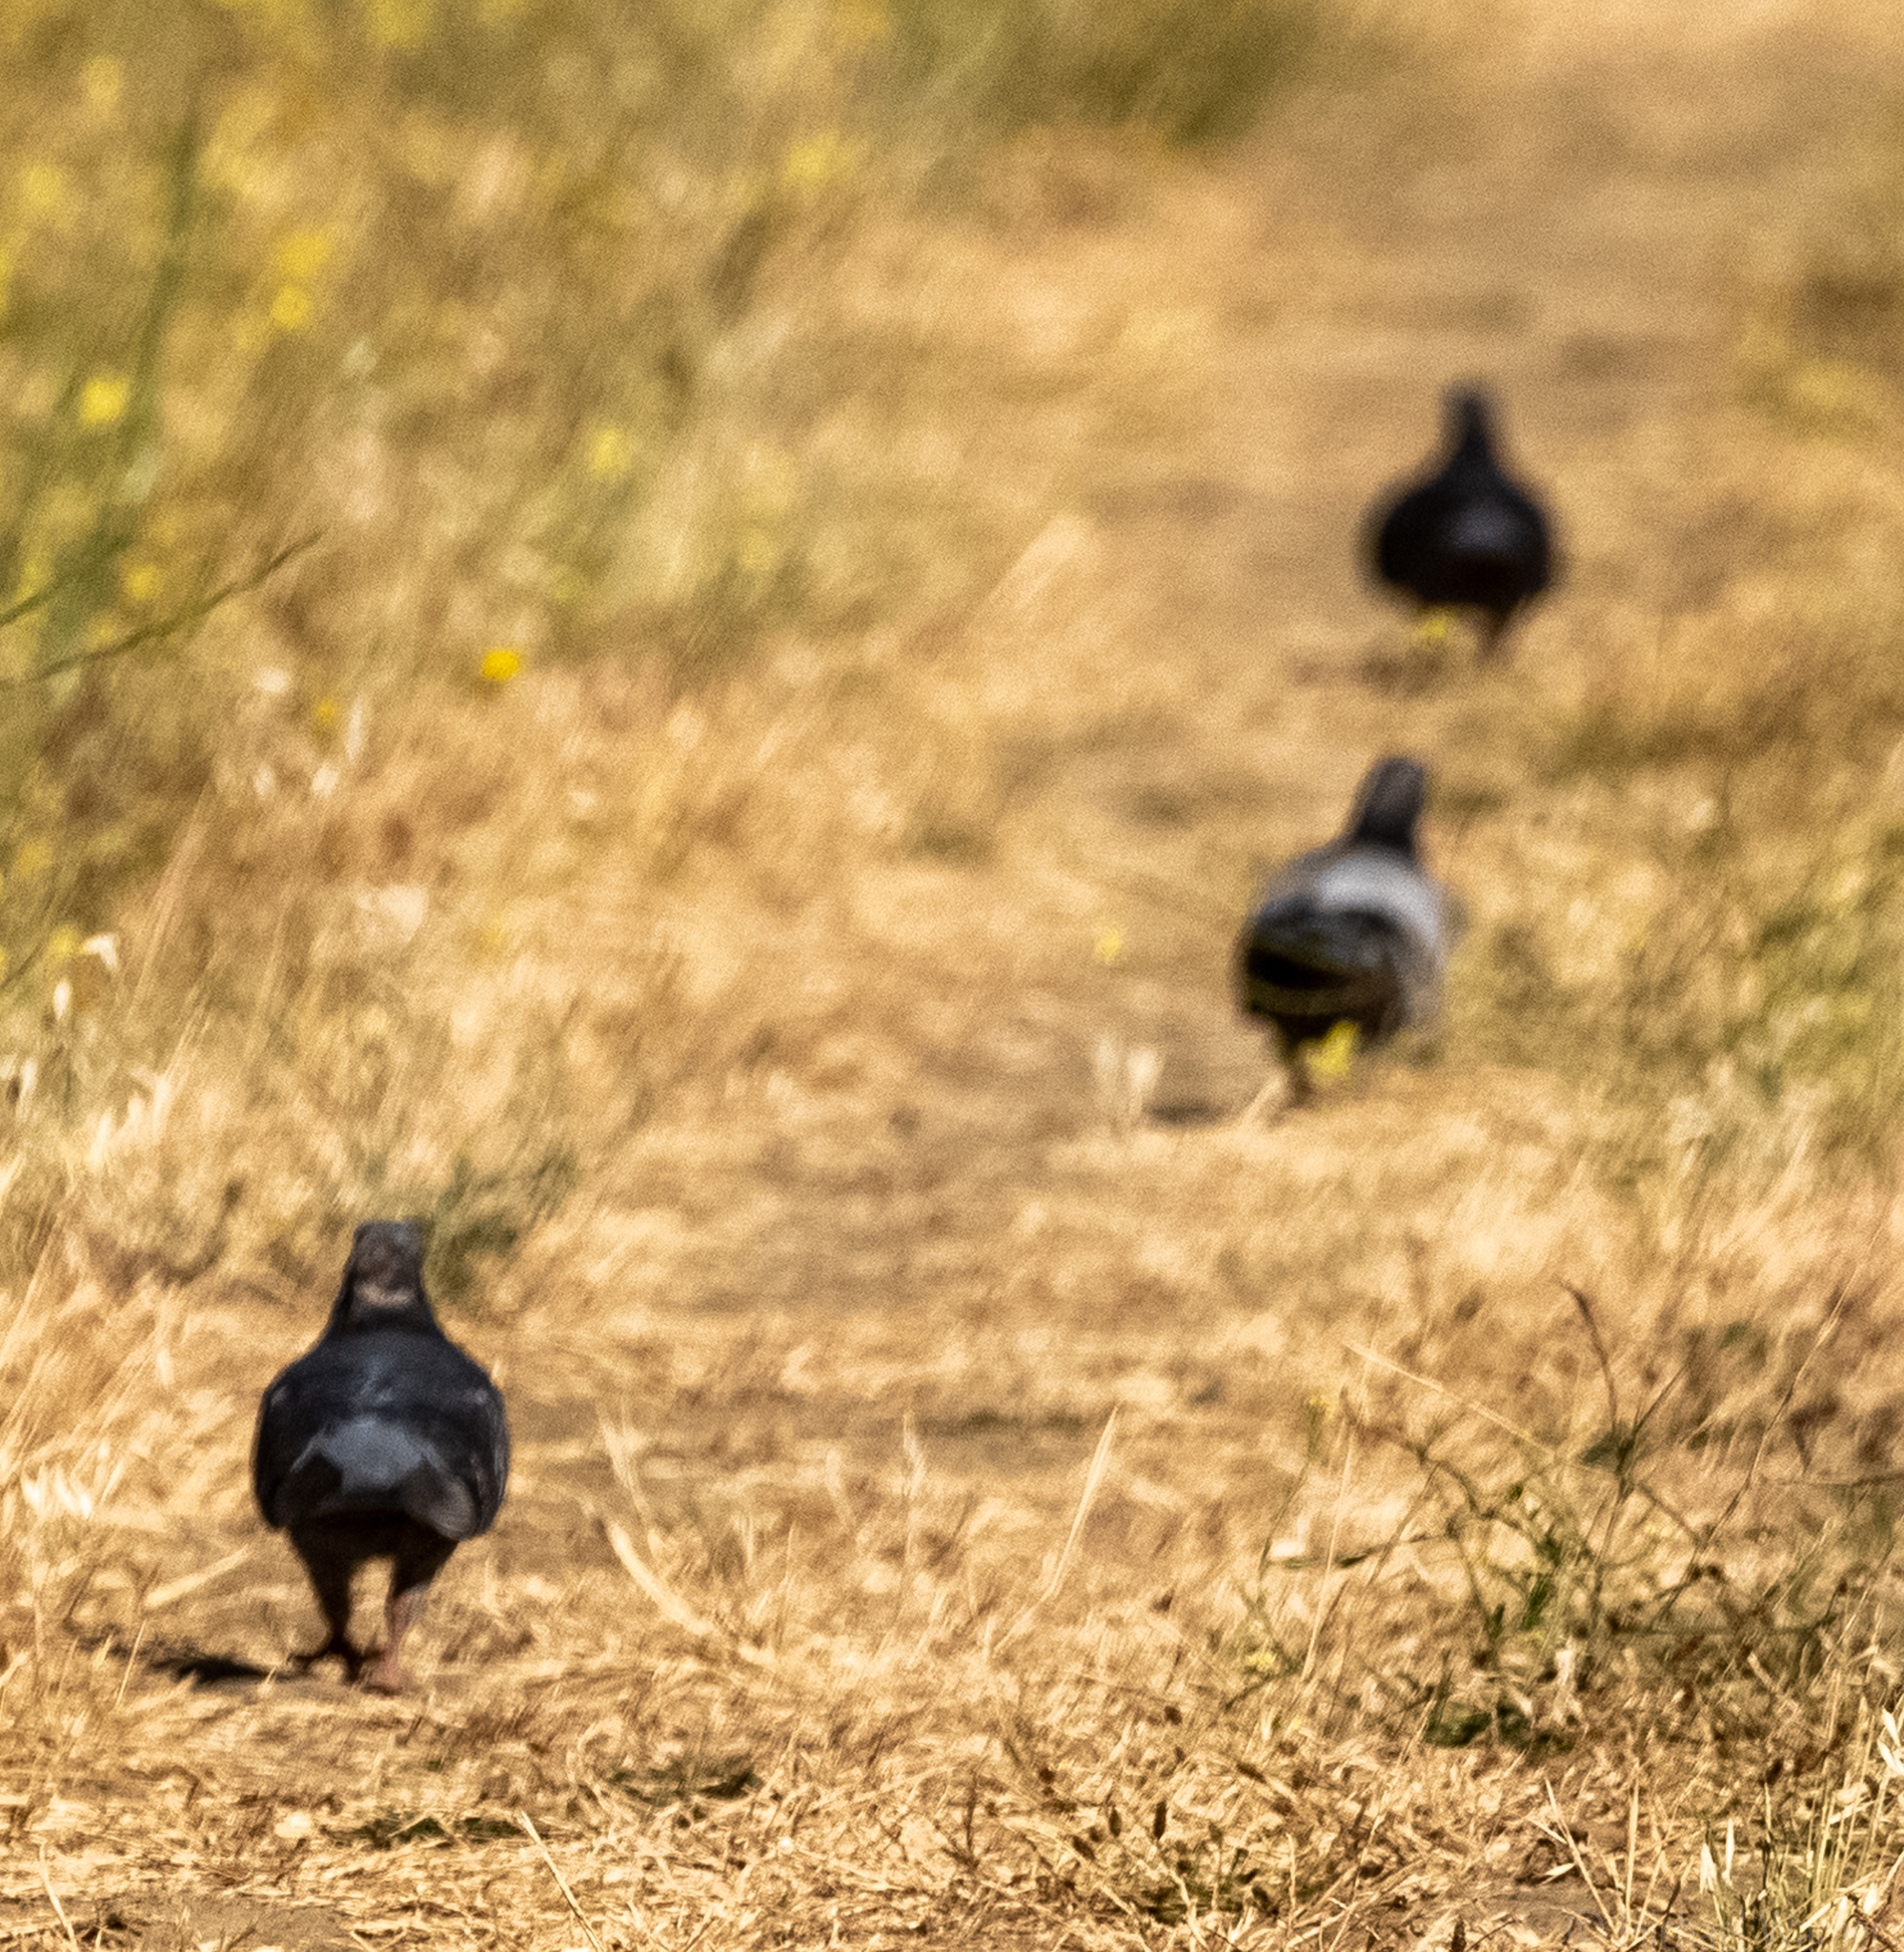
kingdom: Animalia
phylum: Chordata
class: Aves
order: Columbiformes
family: Columbidae
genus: Columba
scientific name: Columba livia
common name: Rock pigeon
